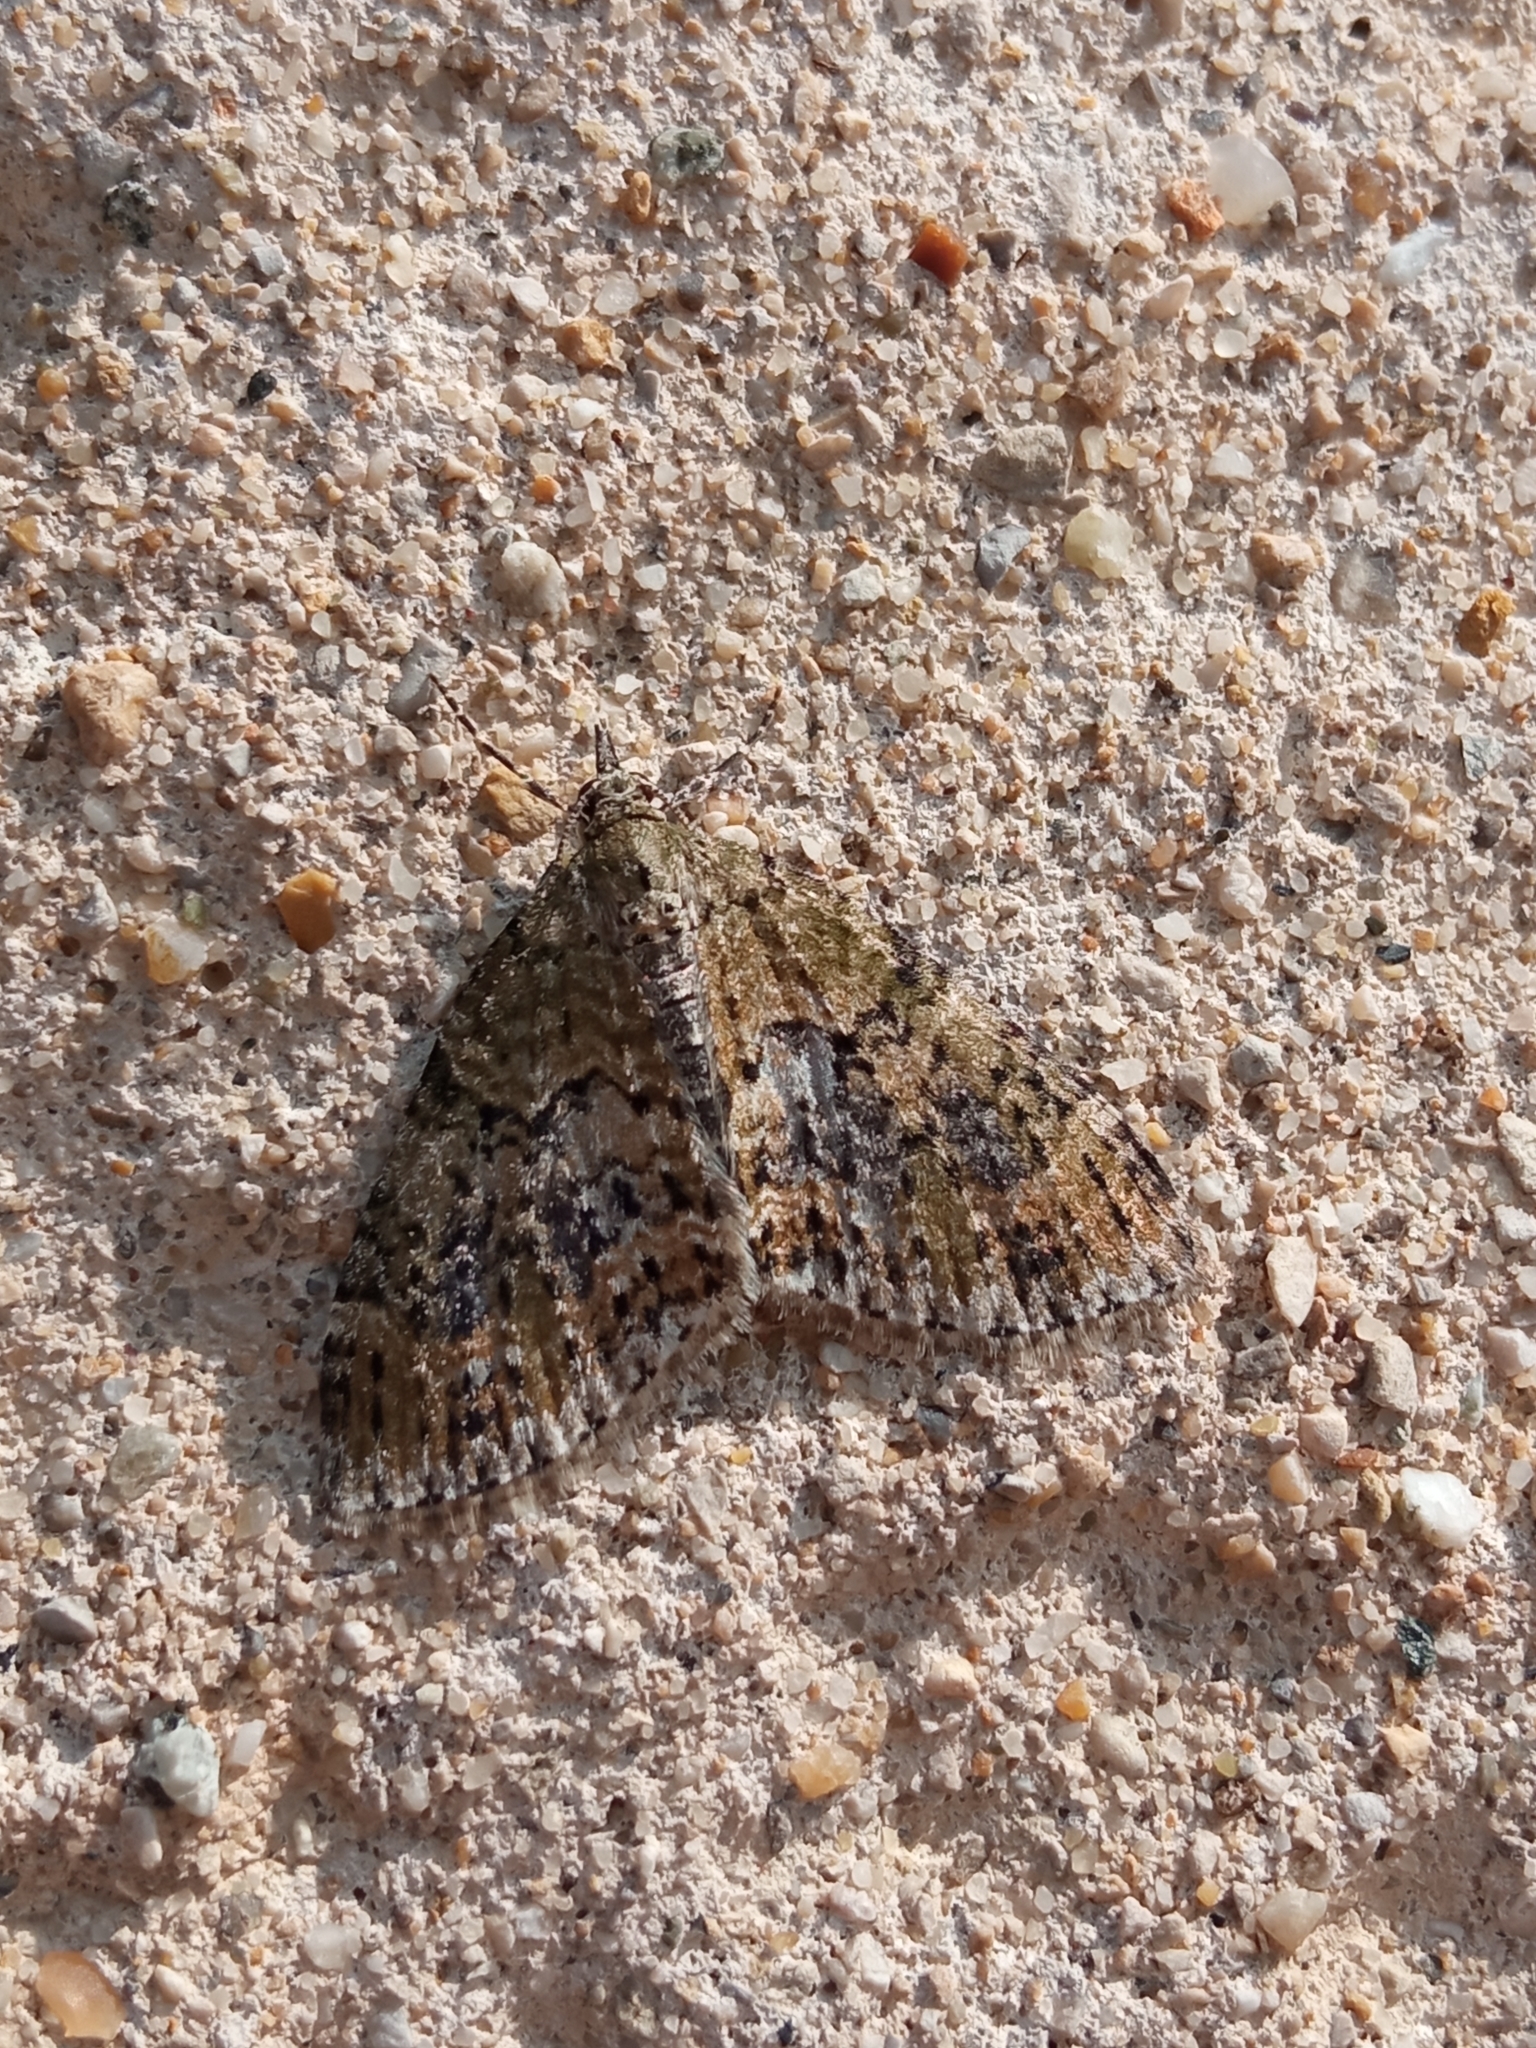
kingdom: Animalia
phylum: Arthropoda
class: Insecta
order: Lepidoptera
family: Geometridae
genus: Acasis
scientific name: Acasis viretata
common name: Yellow-barred brindle
